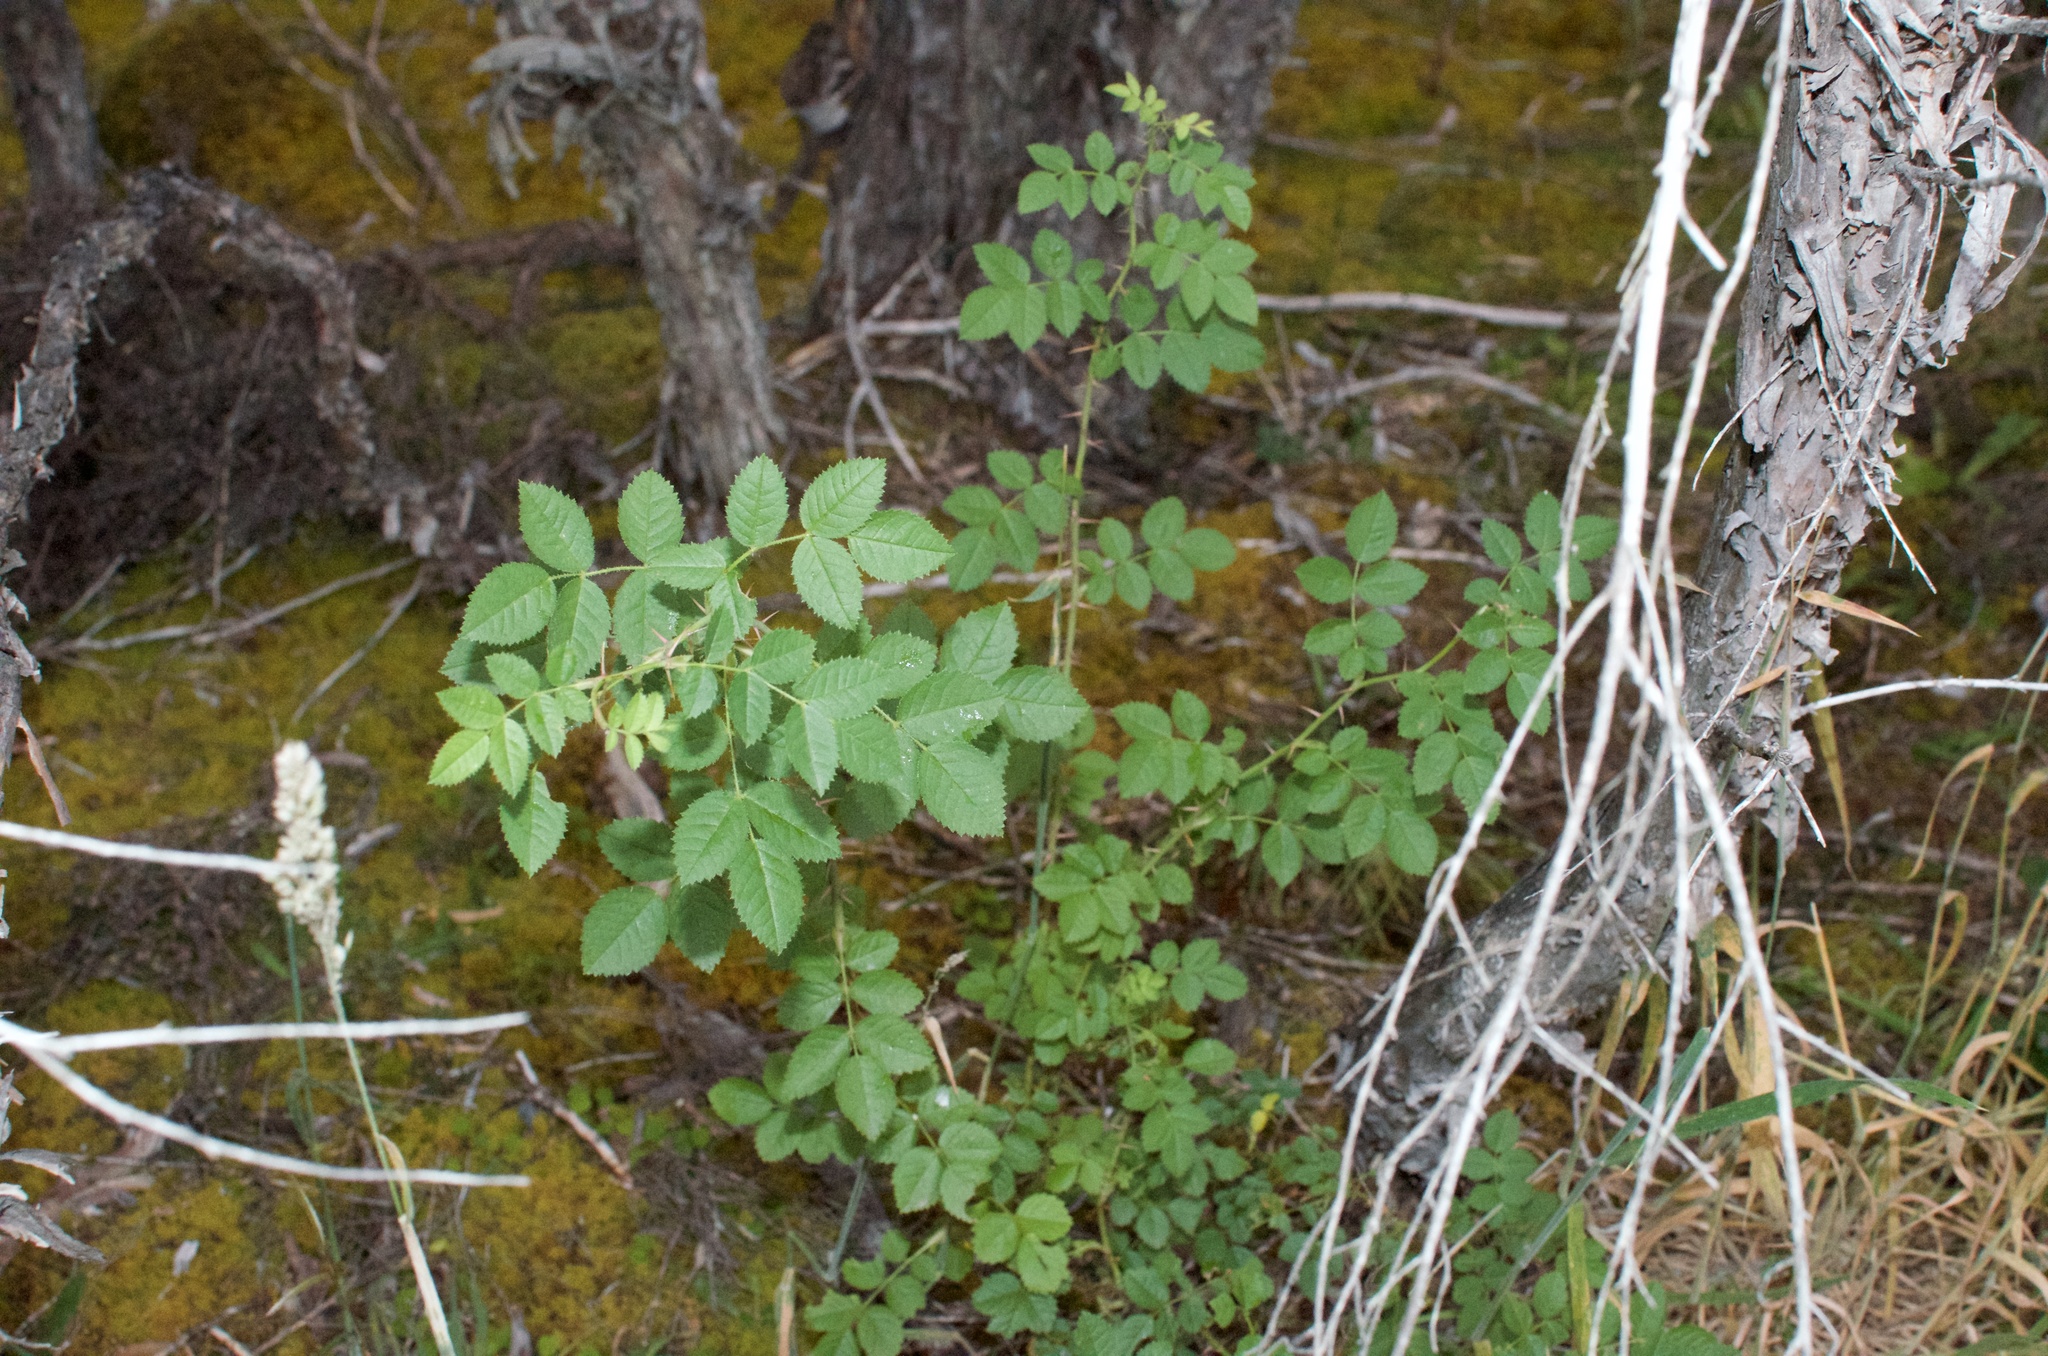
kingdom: Plantae
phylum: Tracheophyta
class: Magnoliopsida
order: Rosales
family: Rosaceae
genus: Rosa
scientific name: Rosa rubiginosa
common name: Sweet-briar
